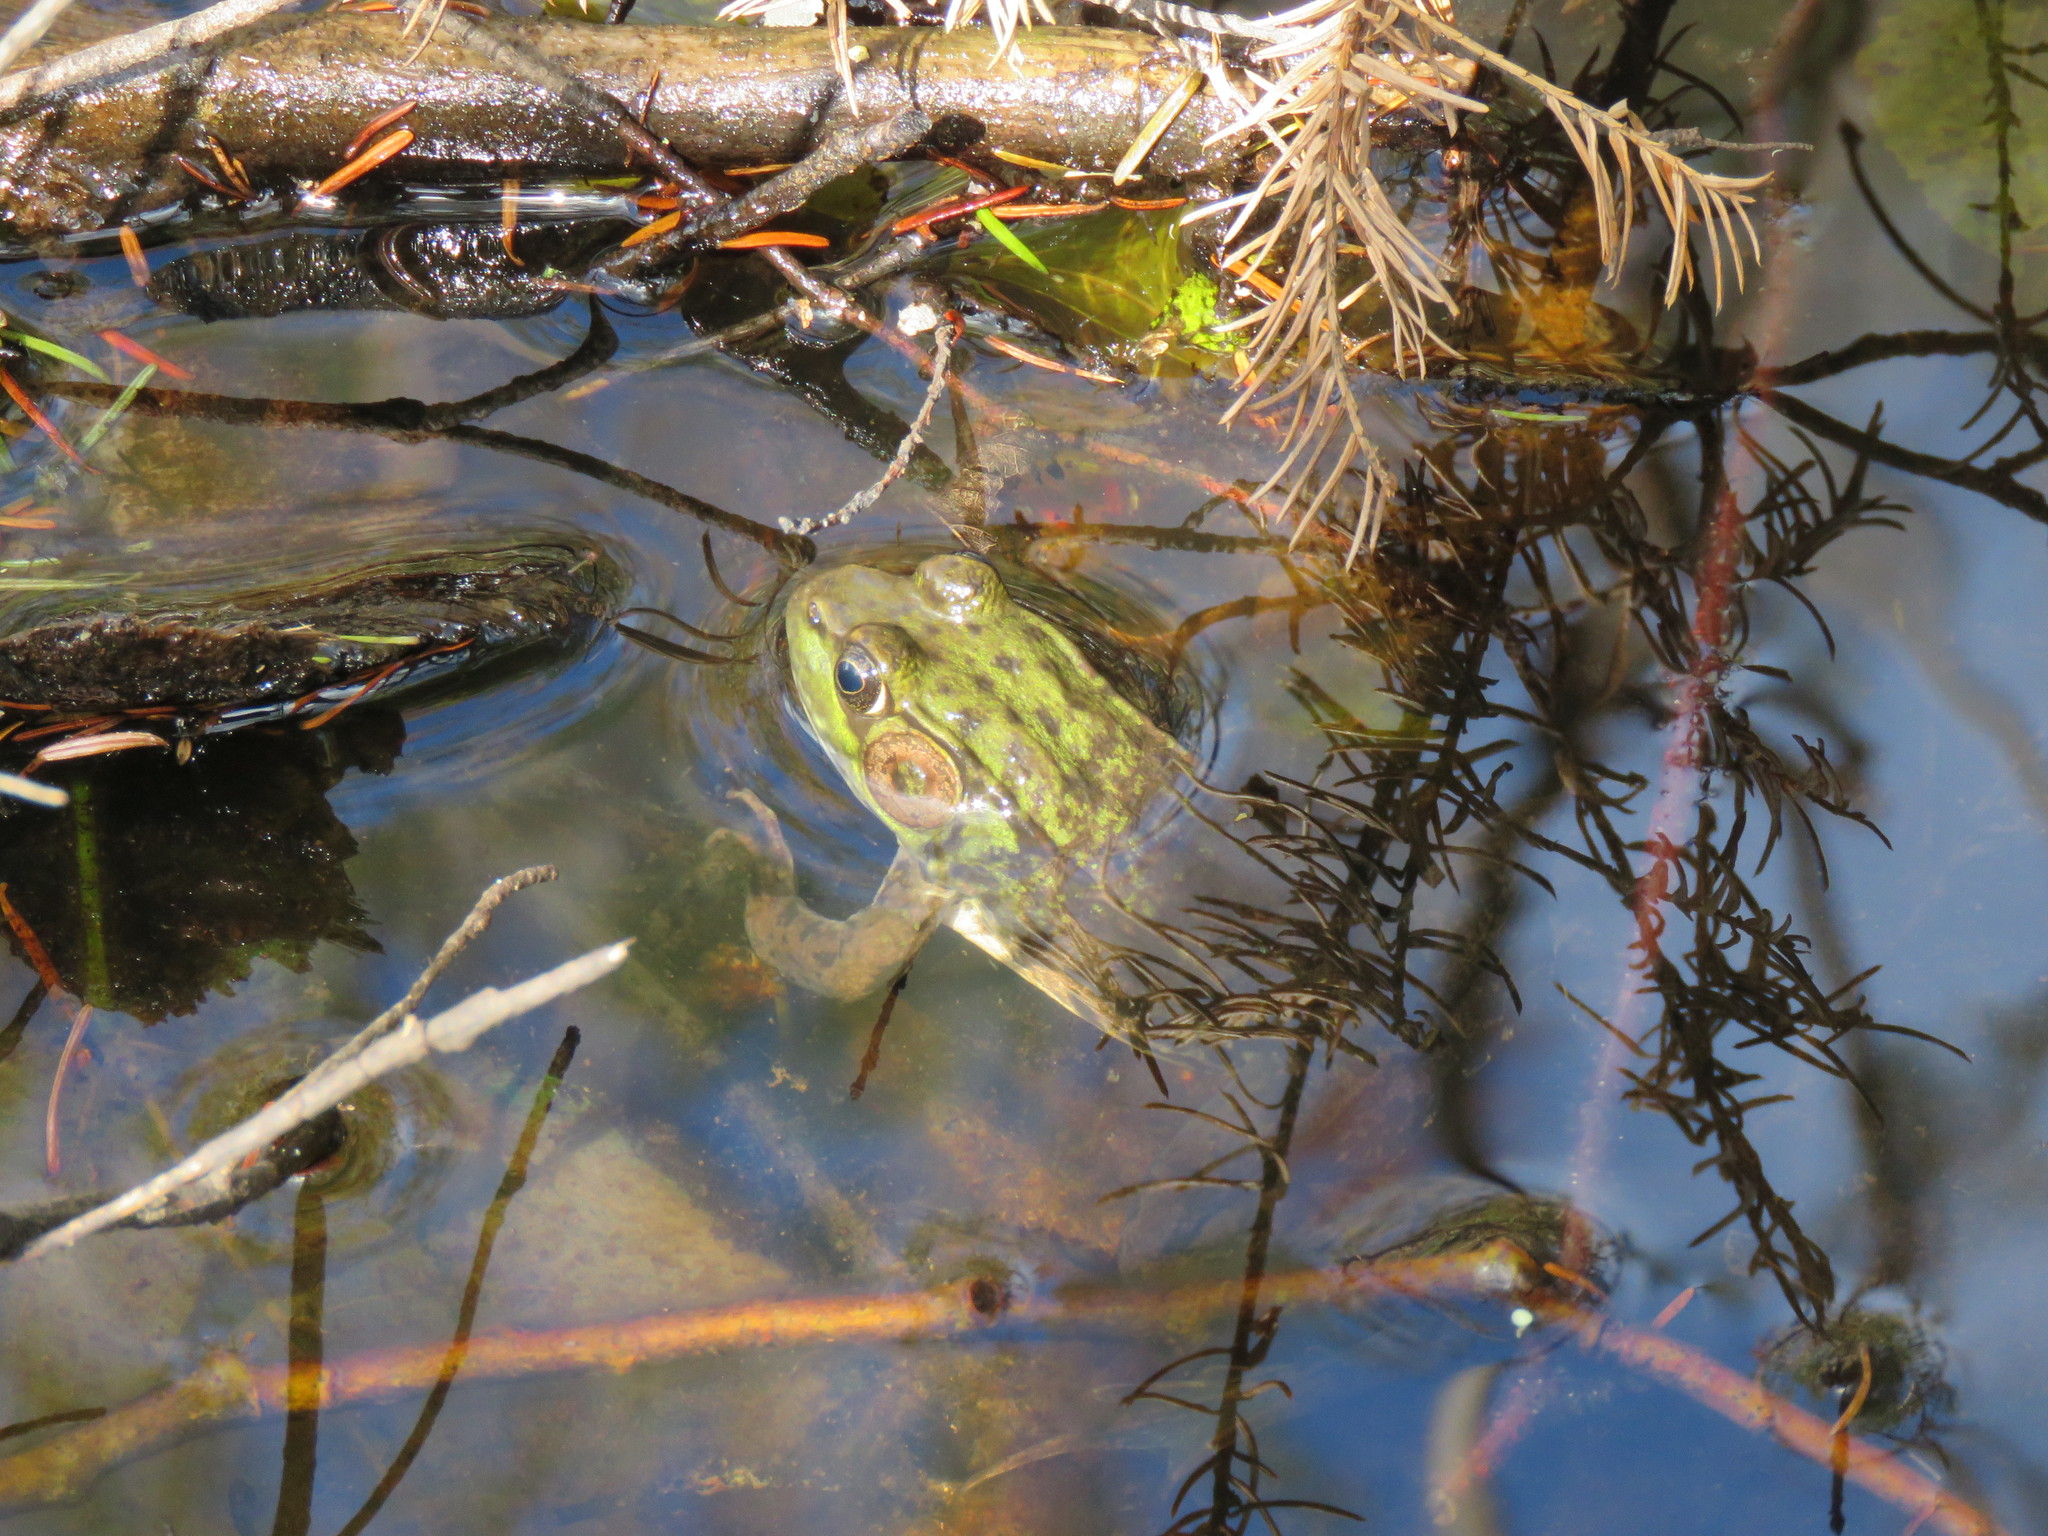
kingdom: Animalia
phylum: Chordata
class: Amphibia
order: Anura
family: Ranidae
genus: Lithobates
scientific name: Lithobates clamitans
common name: Green frog
